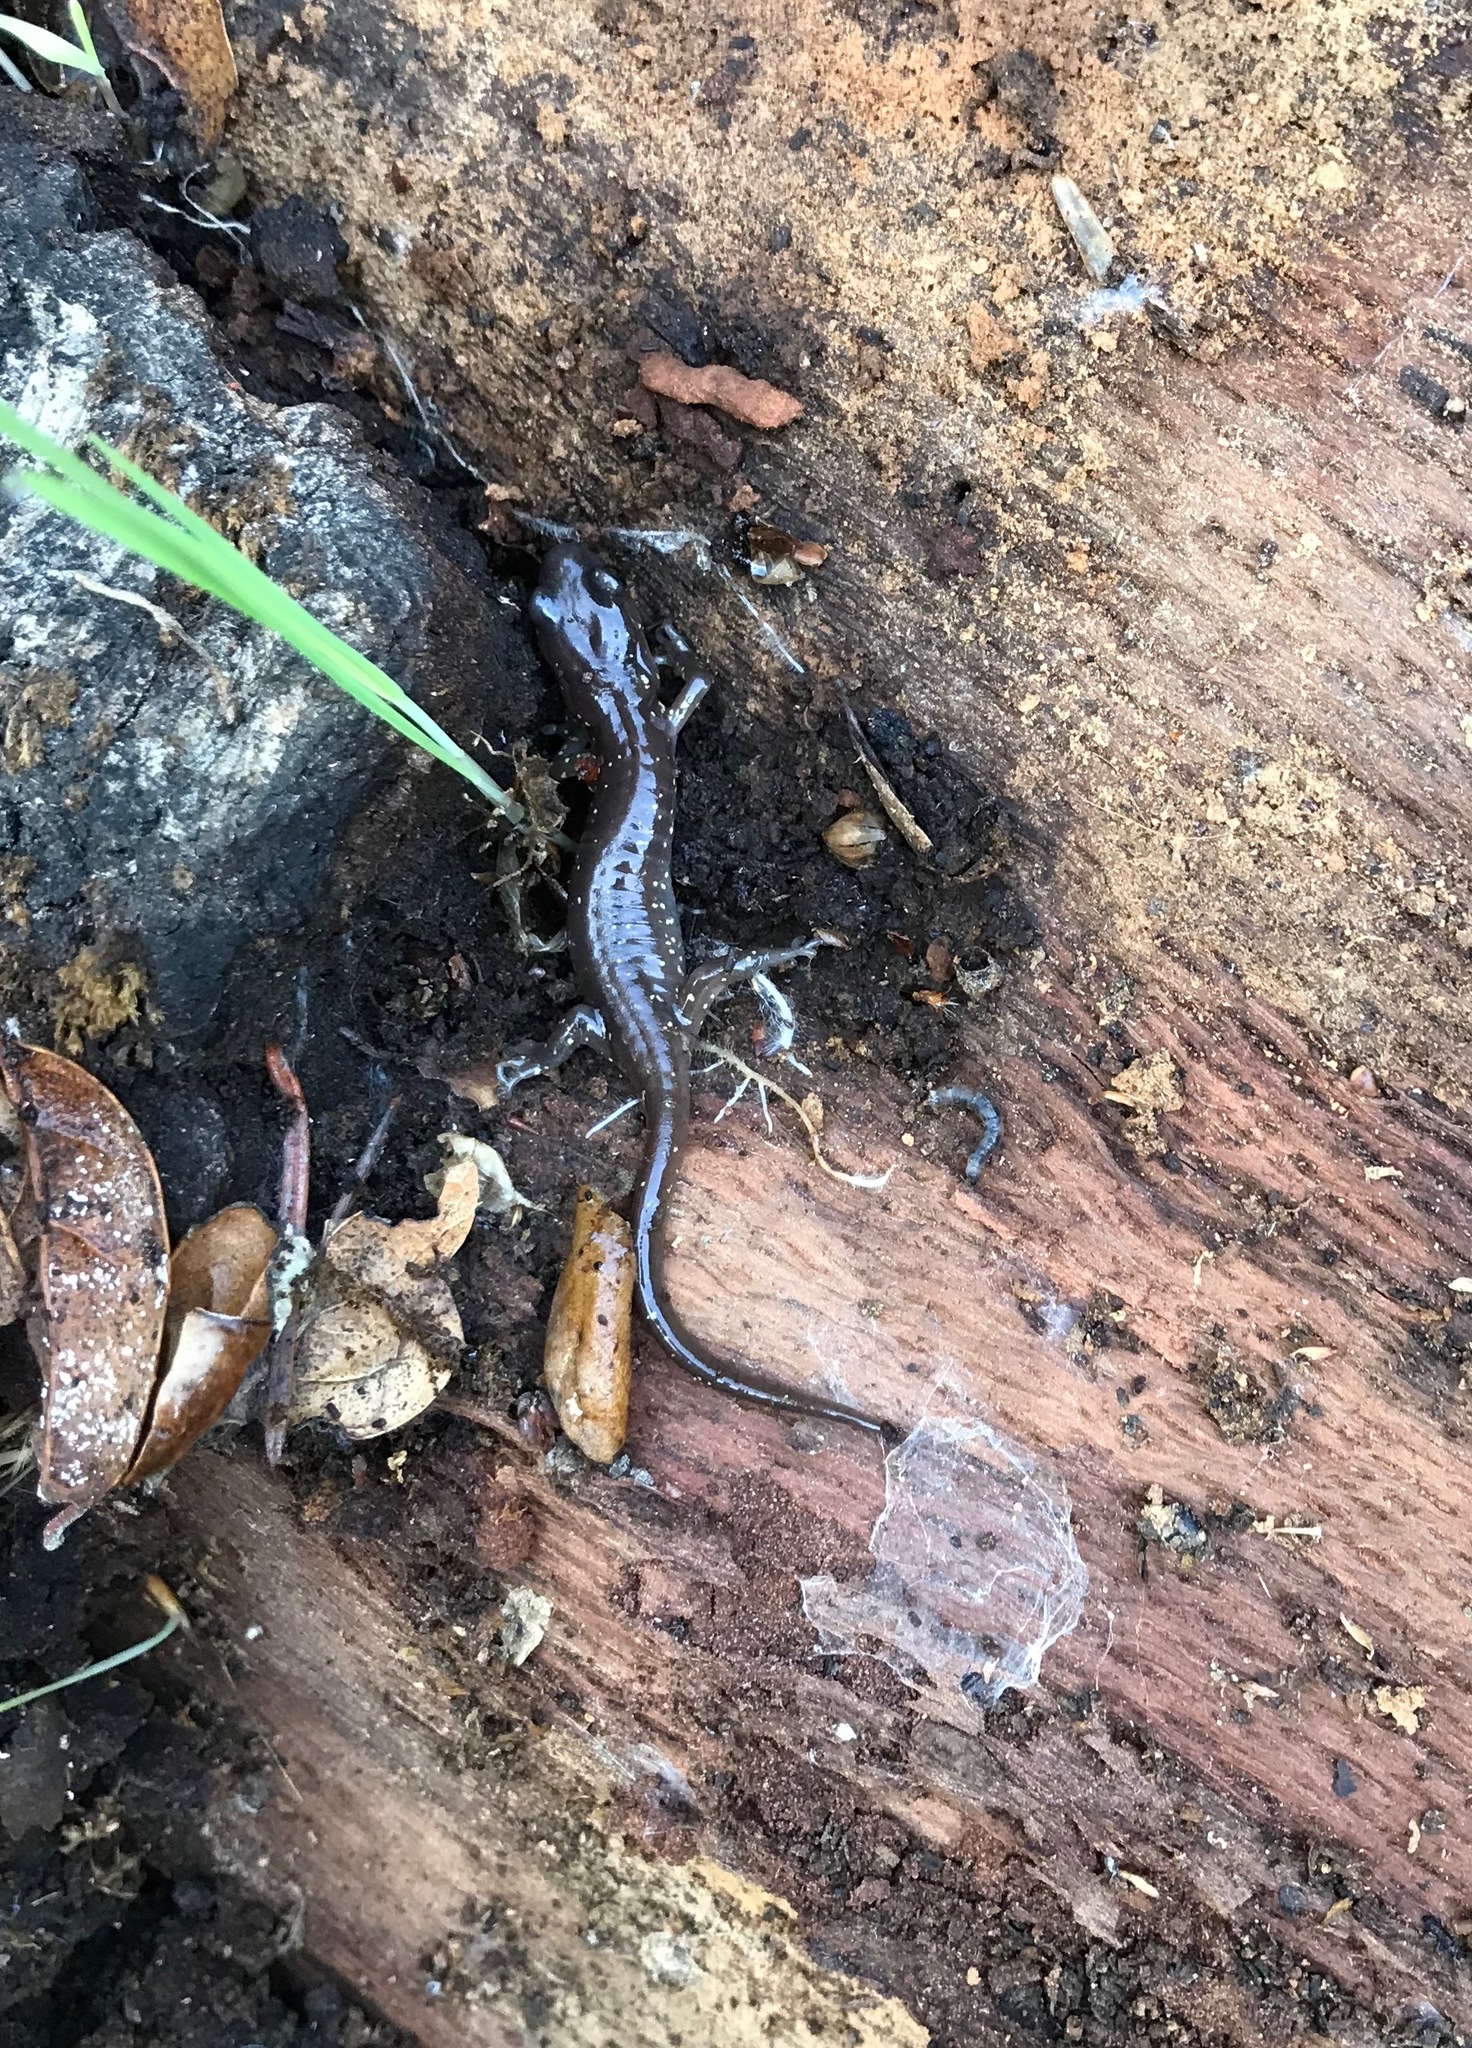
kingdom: Animalia
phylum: Chordata
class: Amphibia
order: Caudata
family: Plethodontidae
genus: Aneides
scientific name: Aneides lugubris
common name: Arboreal salamander
